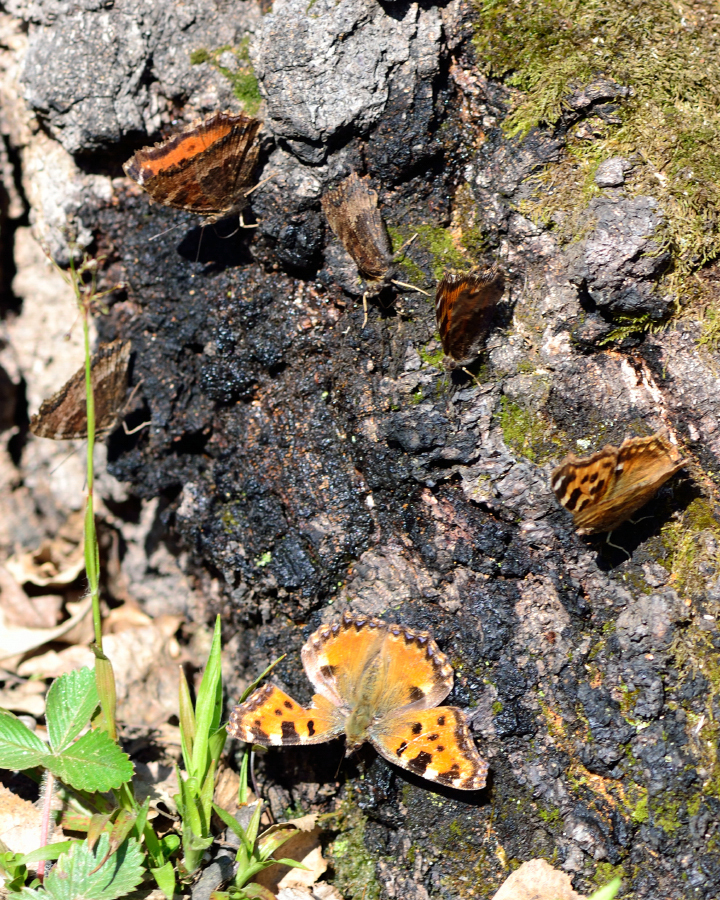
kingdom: Animalia
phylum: Arthropoda
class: Insecta
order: Lepidoptera
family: Nymphalidae
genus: Nymphalis
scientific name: Nymphalis
